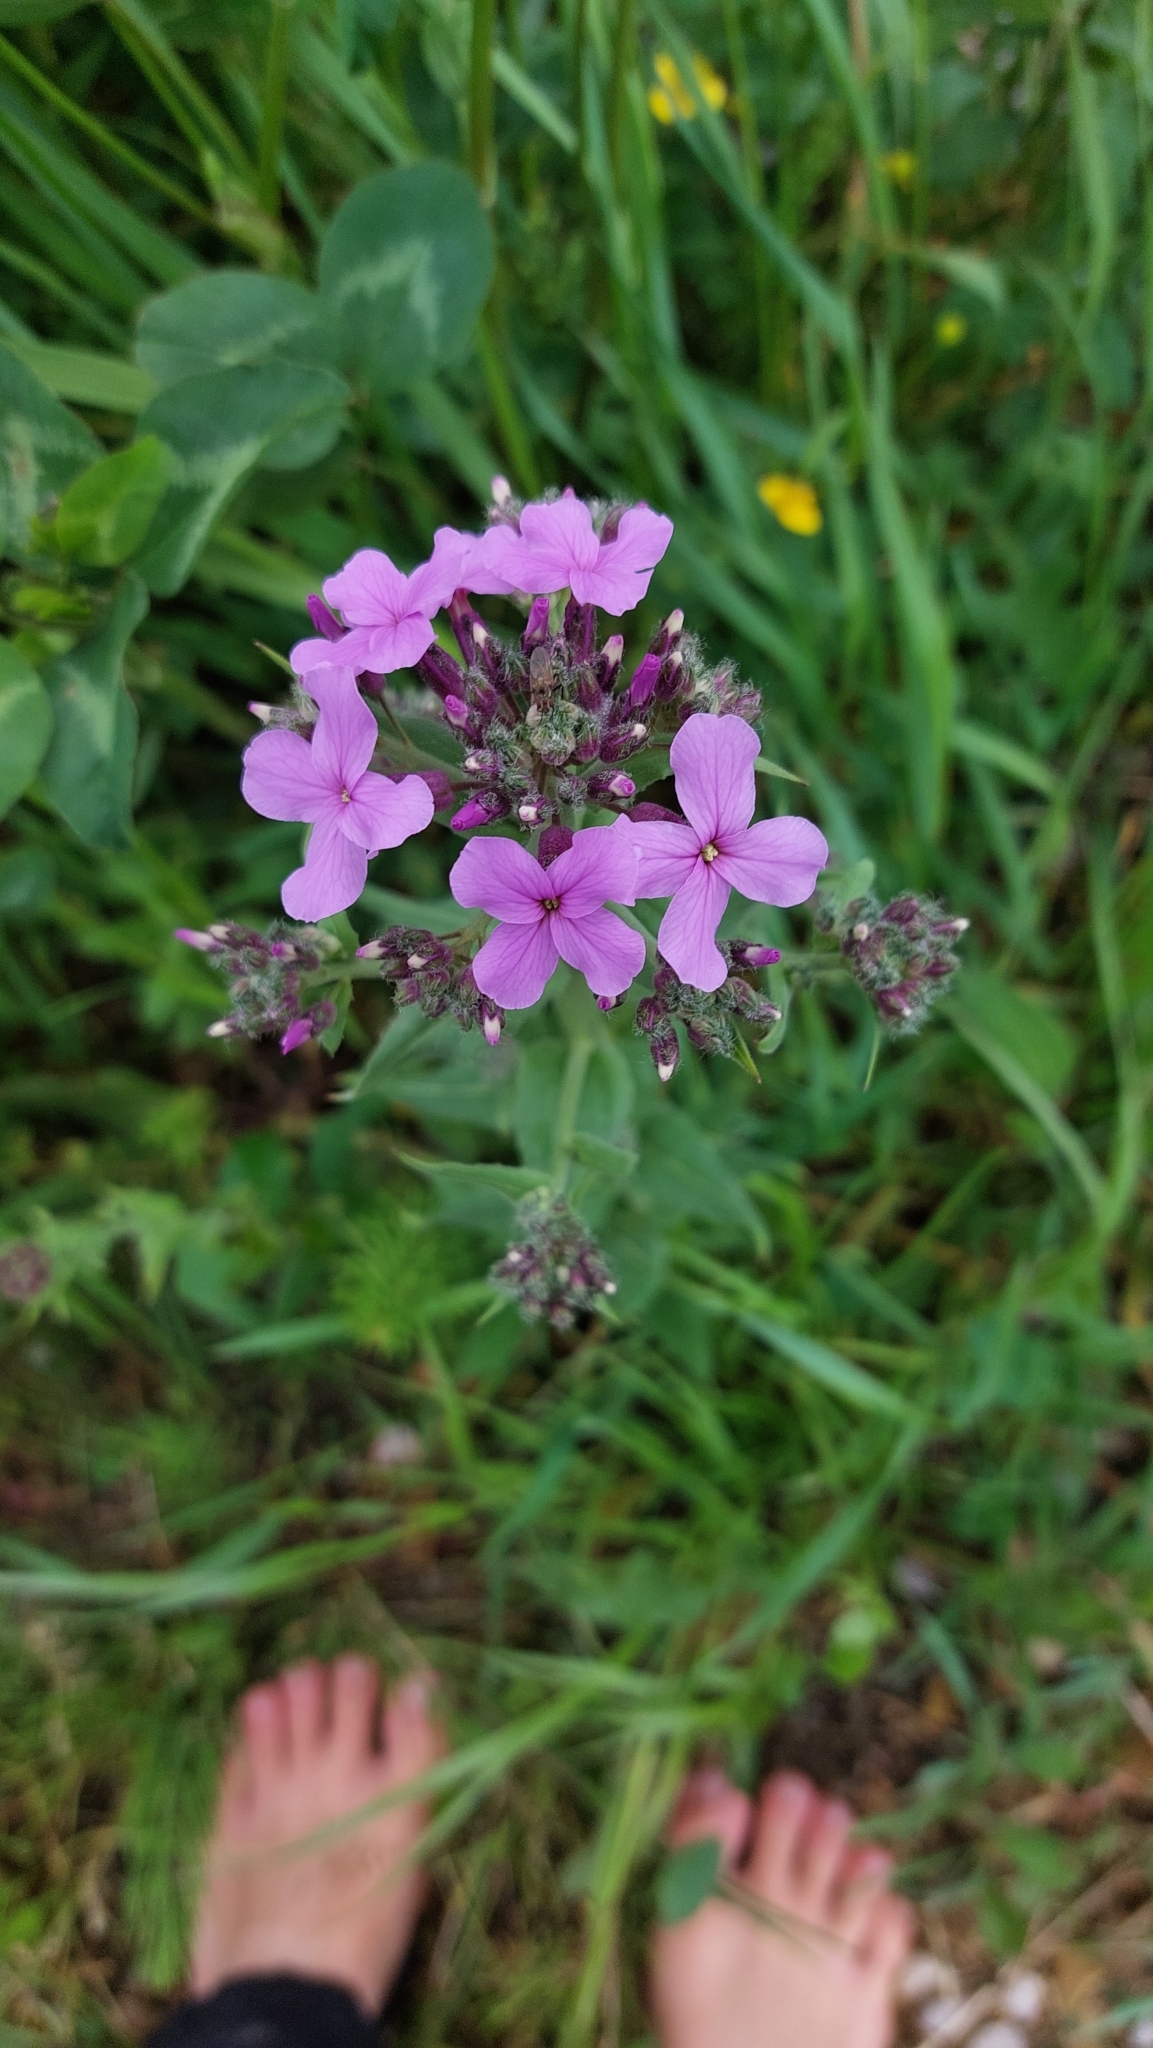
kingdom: Plantae
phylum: Tracheophyta
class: Magnoliopsida
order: Brassicales
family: Brassicaceae
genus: Hesperis
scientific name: Hesperis matronalis
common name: Dame's-violet
